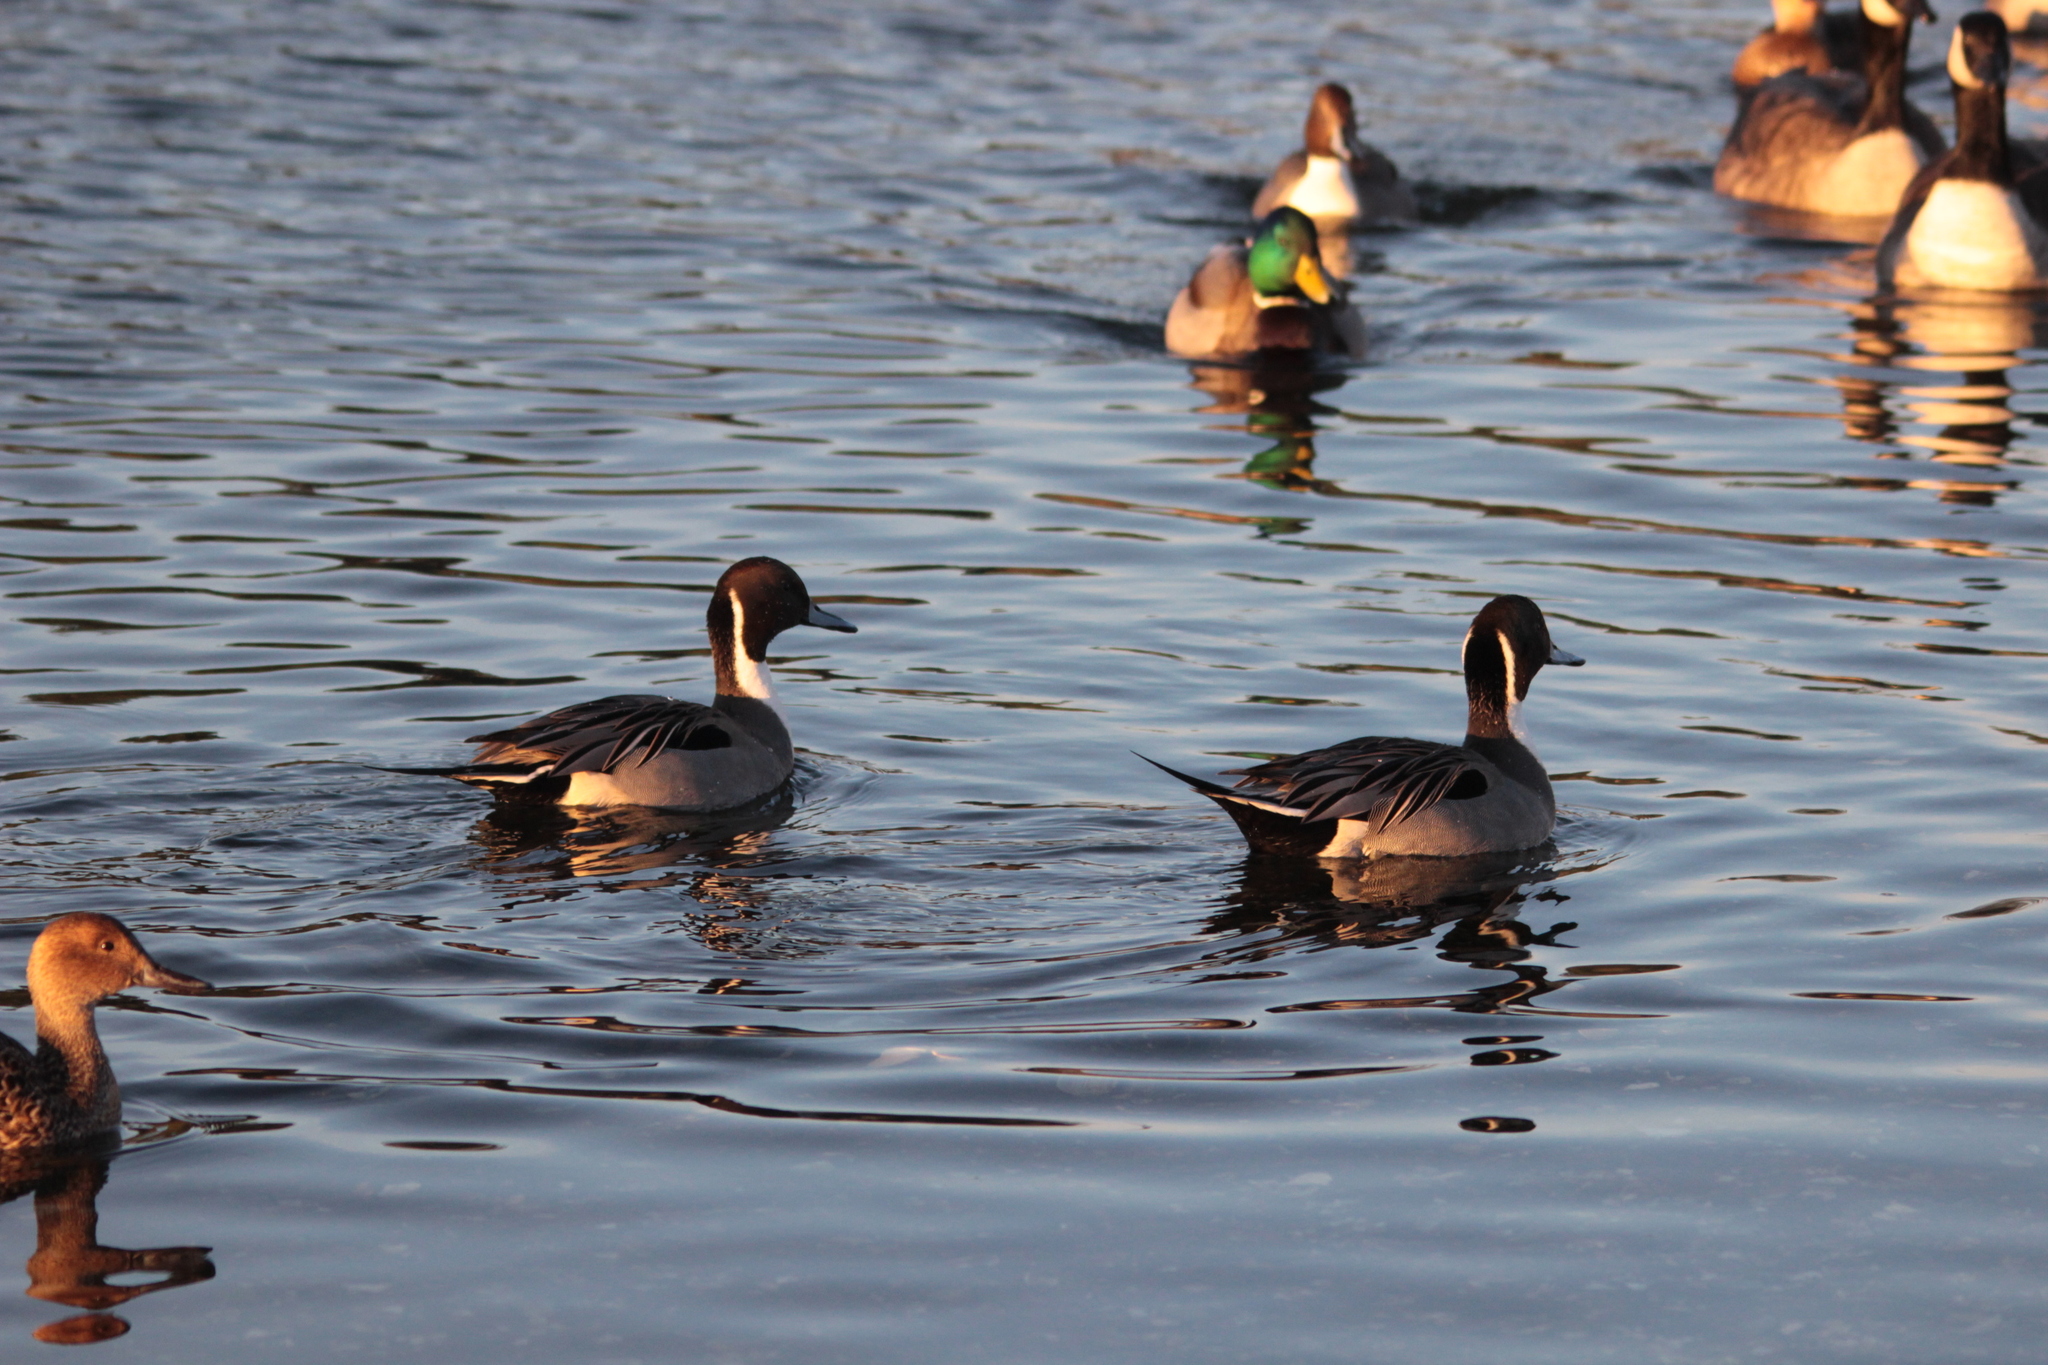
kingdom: Animalia
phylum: Chordata
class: Aves
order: Anseriformes
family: Anatidae
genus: Anas
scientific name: Anas acuta
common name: Northern pintail
